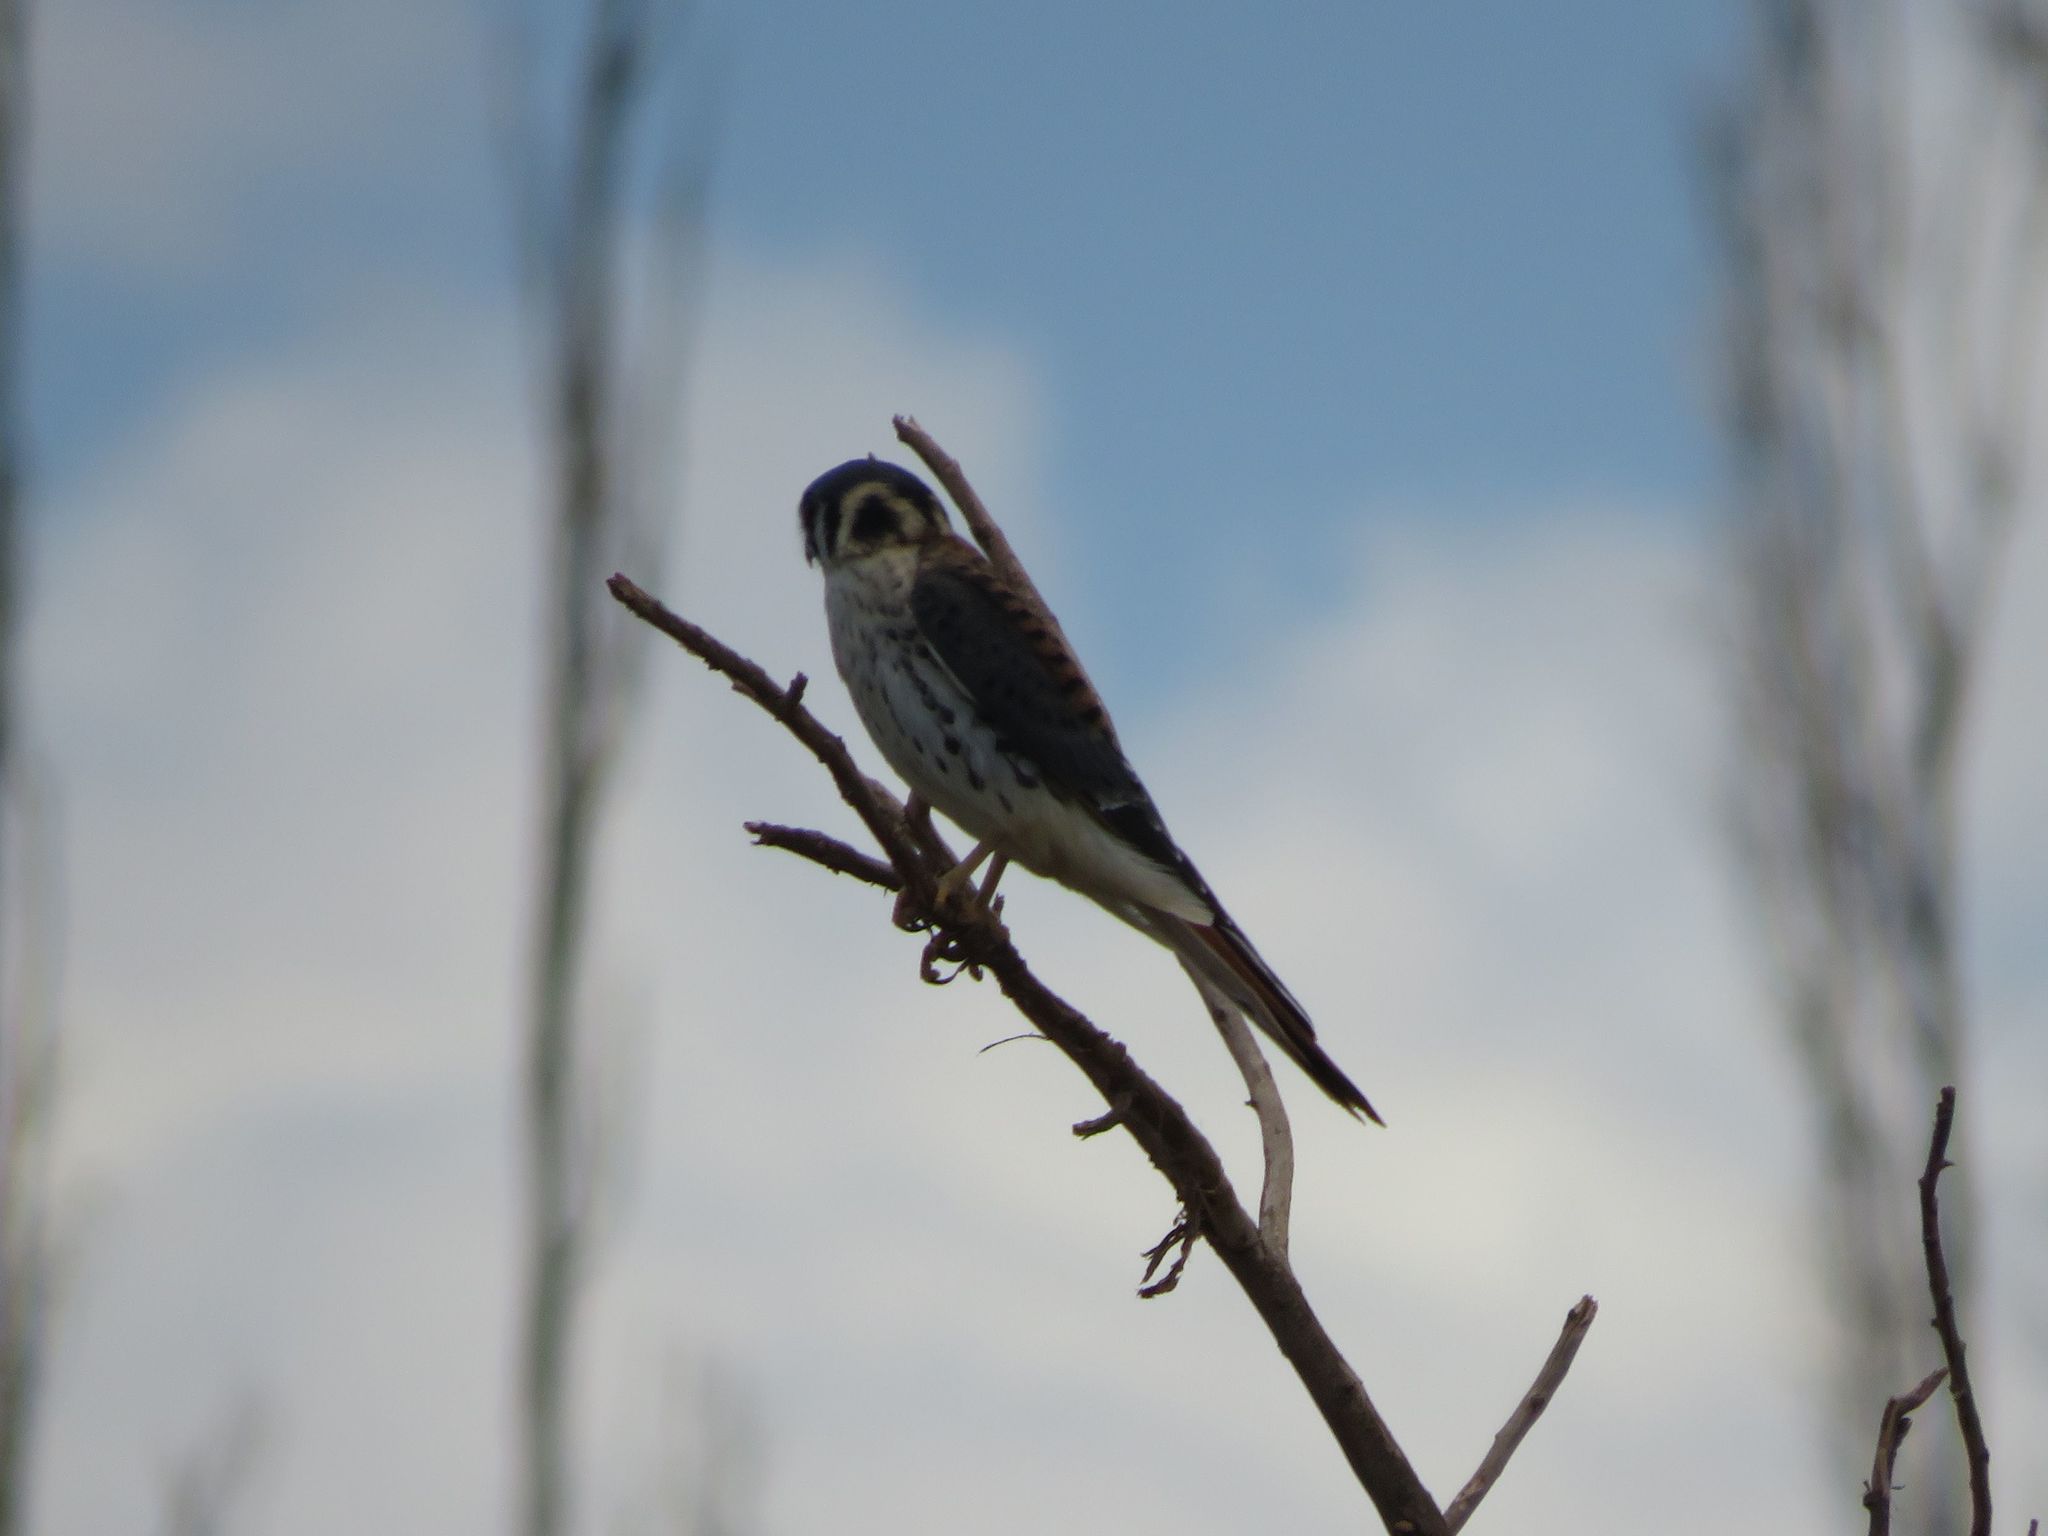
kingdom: Animalia
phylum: Chordata
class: Aves
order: Falconiformes
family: Falconidae
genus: Falco
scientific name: Falco sparverius
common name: American kestrel
